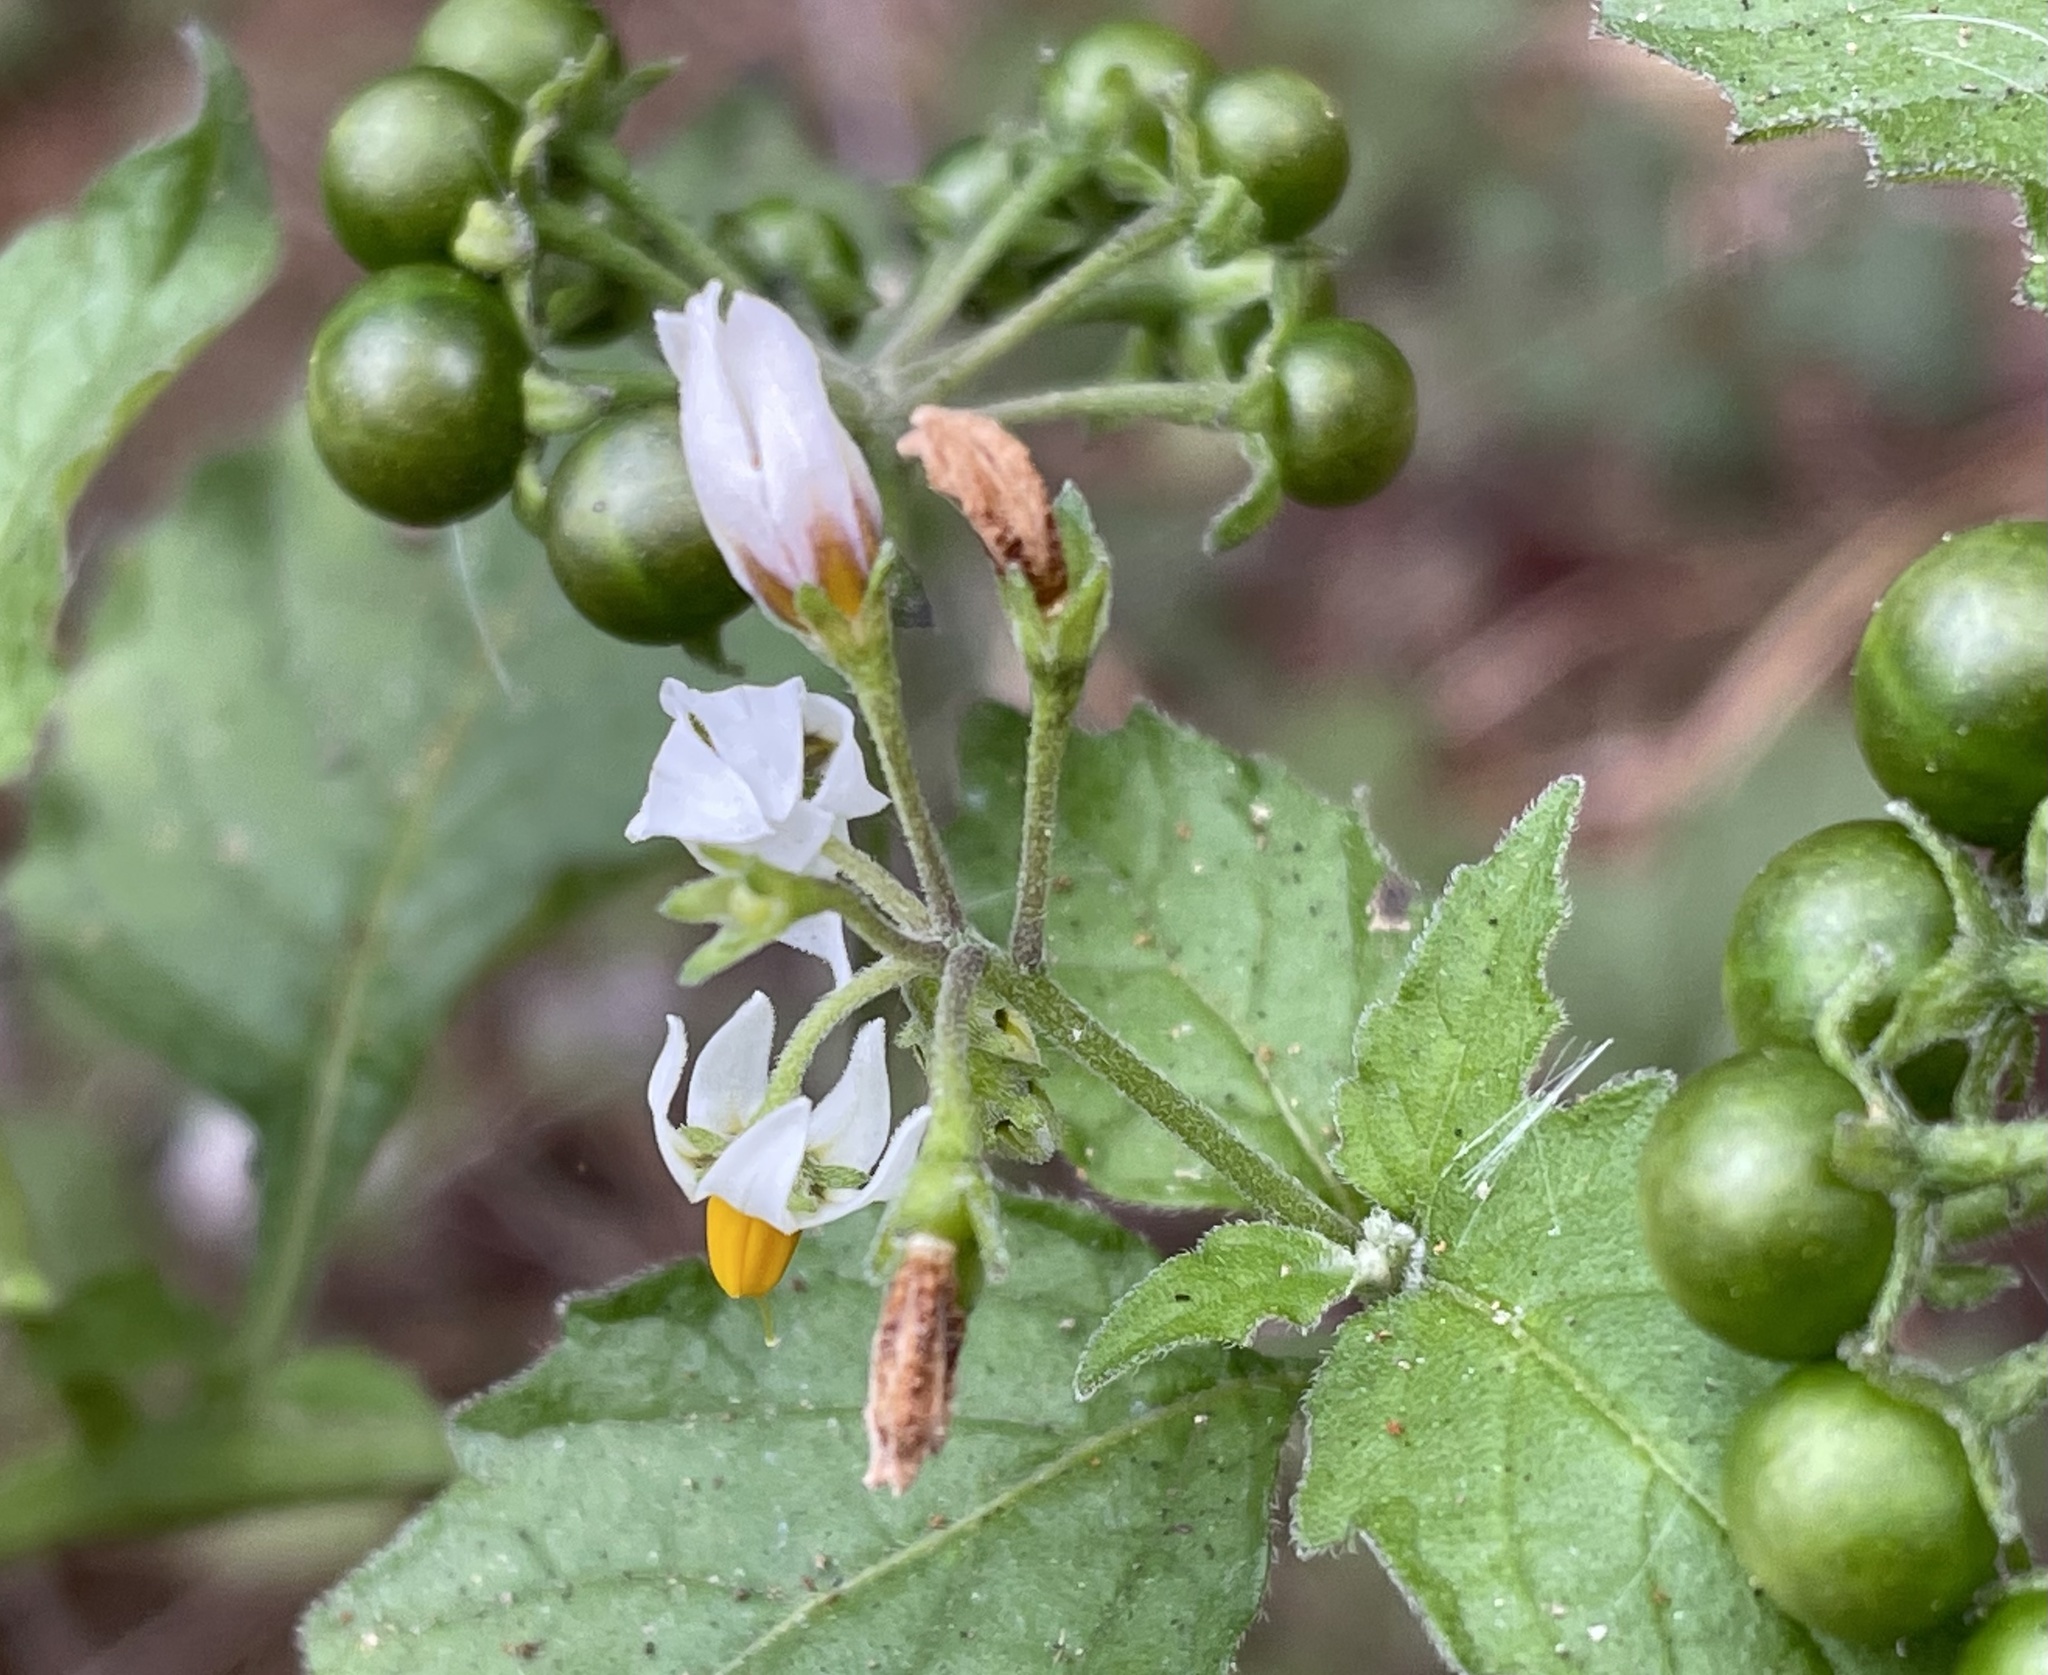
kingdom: Plantae
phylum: Tracheophyta
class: Magnoliopsida
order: Solanales
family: Solanaceae
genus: Solanum
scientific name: Solanum douglasii
